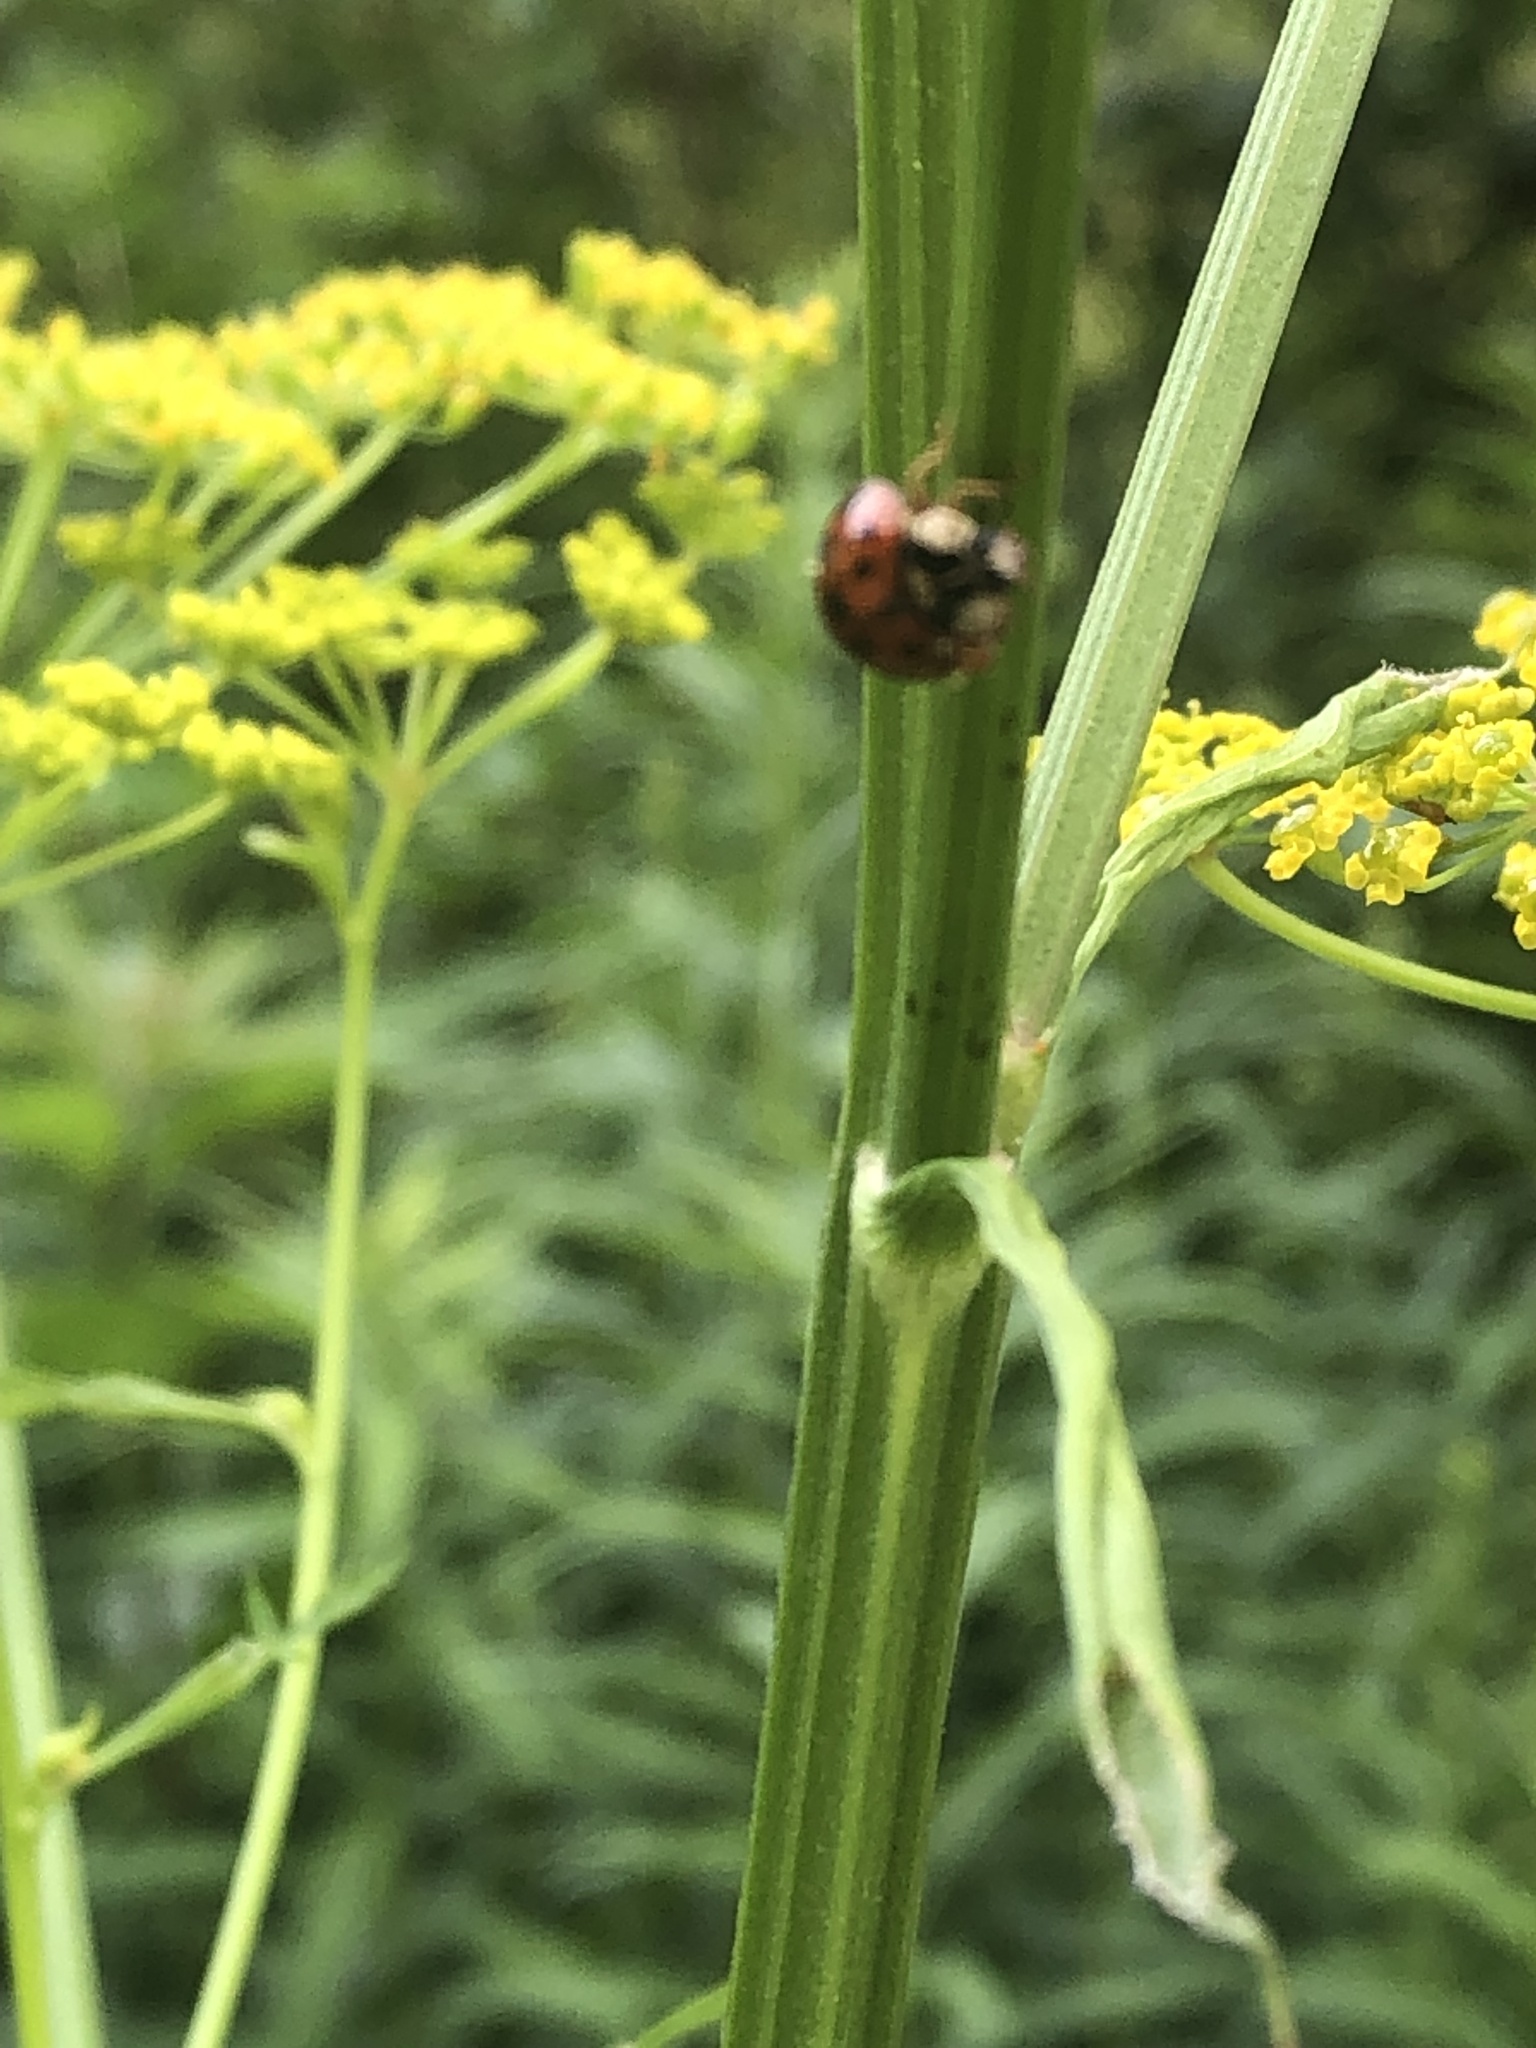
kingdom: Animalia
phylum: Arthropoda
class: Insecta
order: Coleoptera
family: Coccinellidae
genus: Harmonia
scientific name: Harmonia axyridis
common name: Harlequin ladybird
